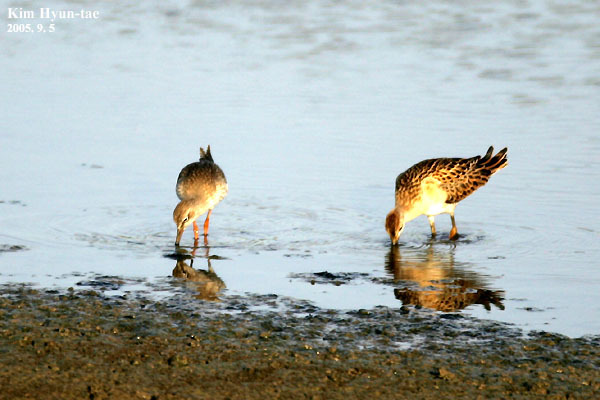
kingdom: Animalia
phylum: Chordata
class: Aves
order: Charadriiformes
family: Scolopacidae
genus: Tringa
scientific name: Tringa totanus
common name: Common redshank
